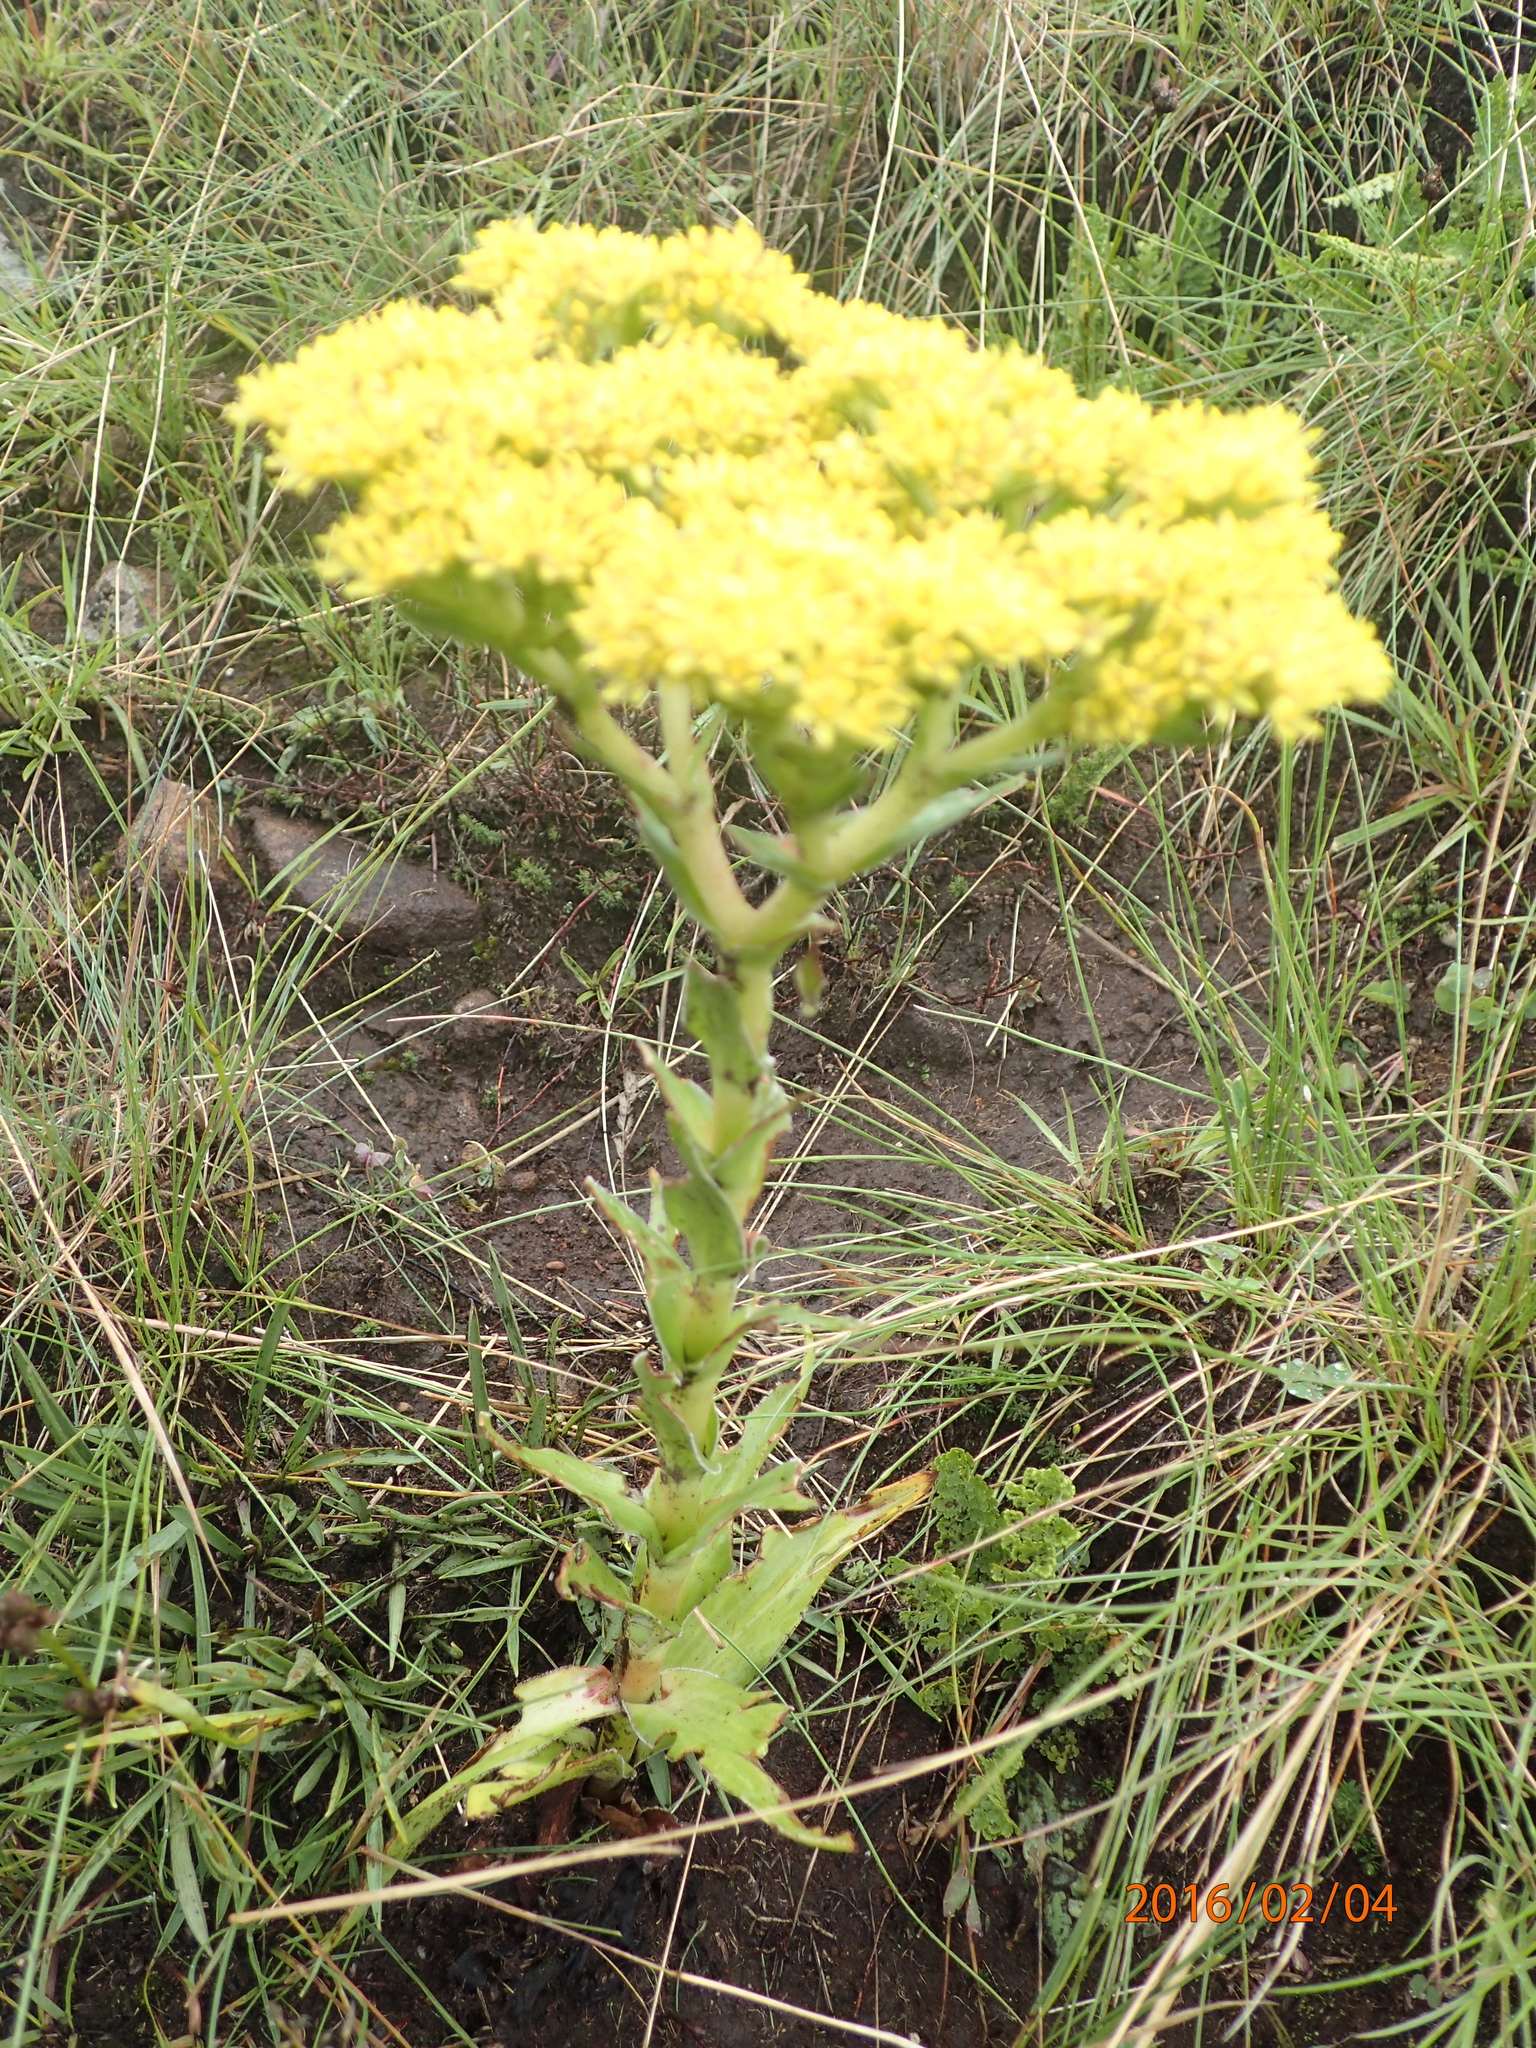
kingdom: Plantae
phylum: Tracheophyta
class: Magnoliopsida
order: Saxifragales
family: Crassulaceae
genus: Crassula
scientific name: Crassula vaginata
